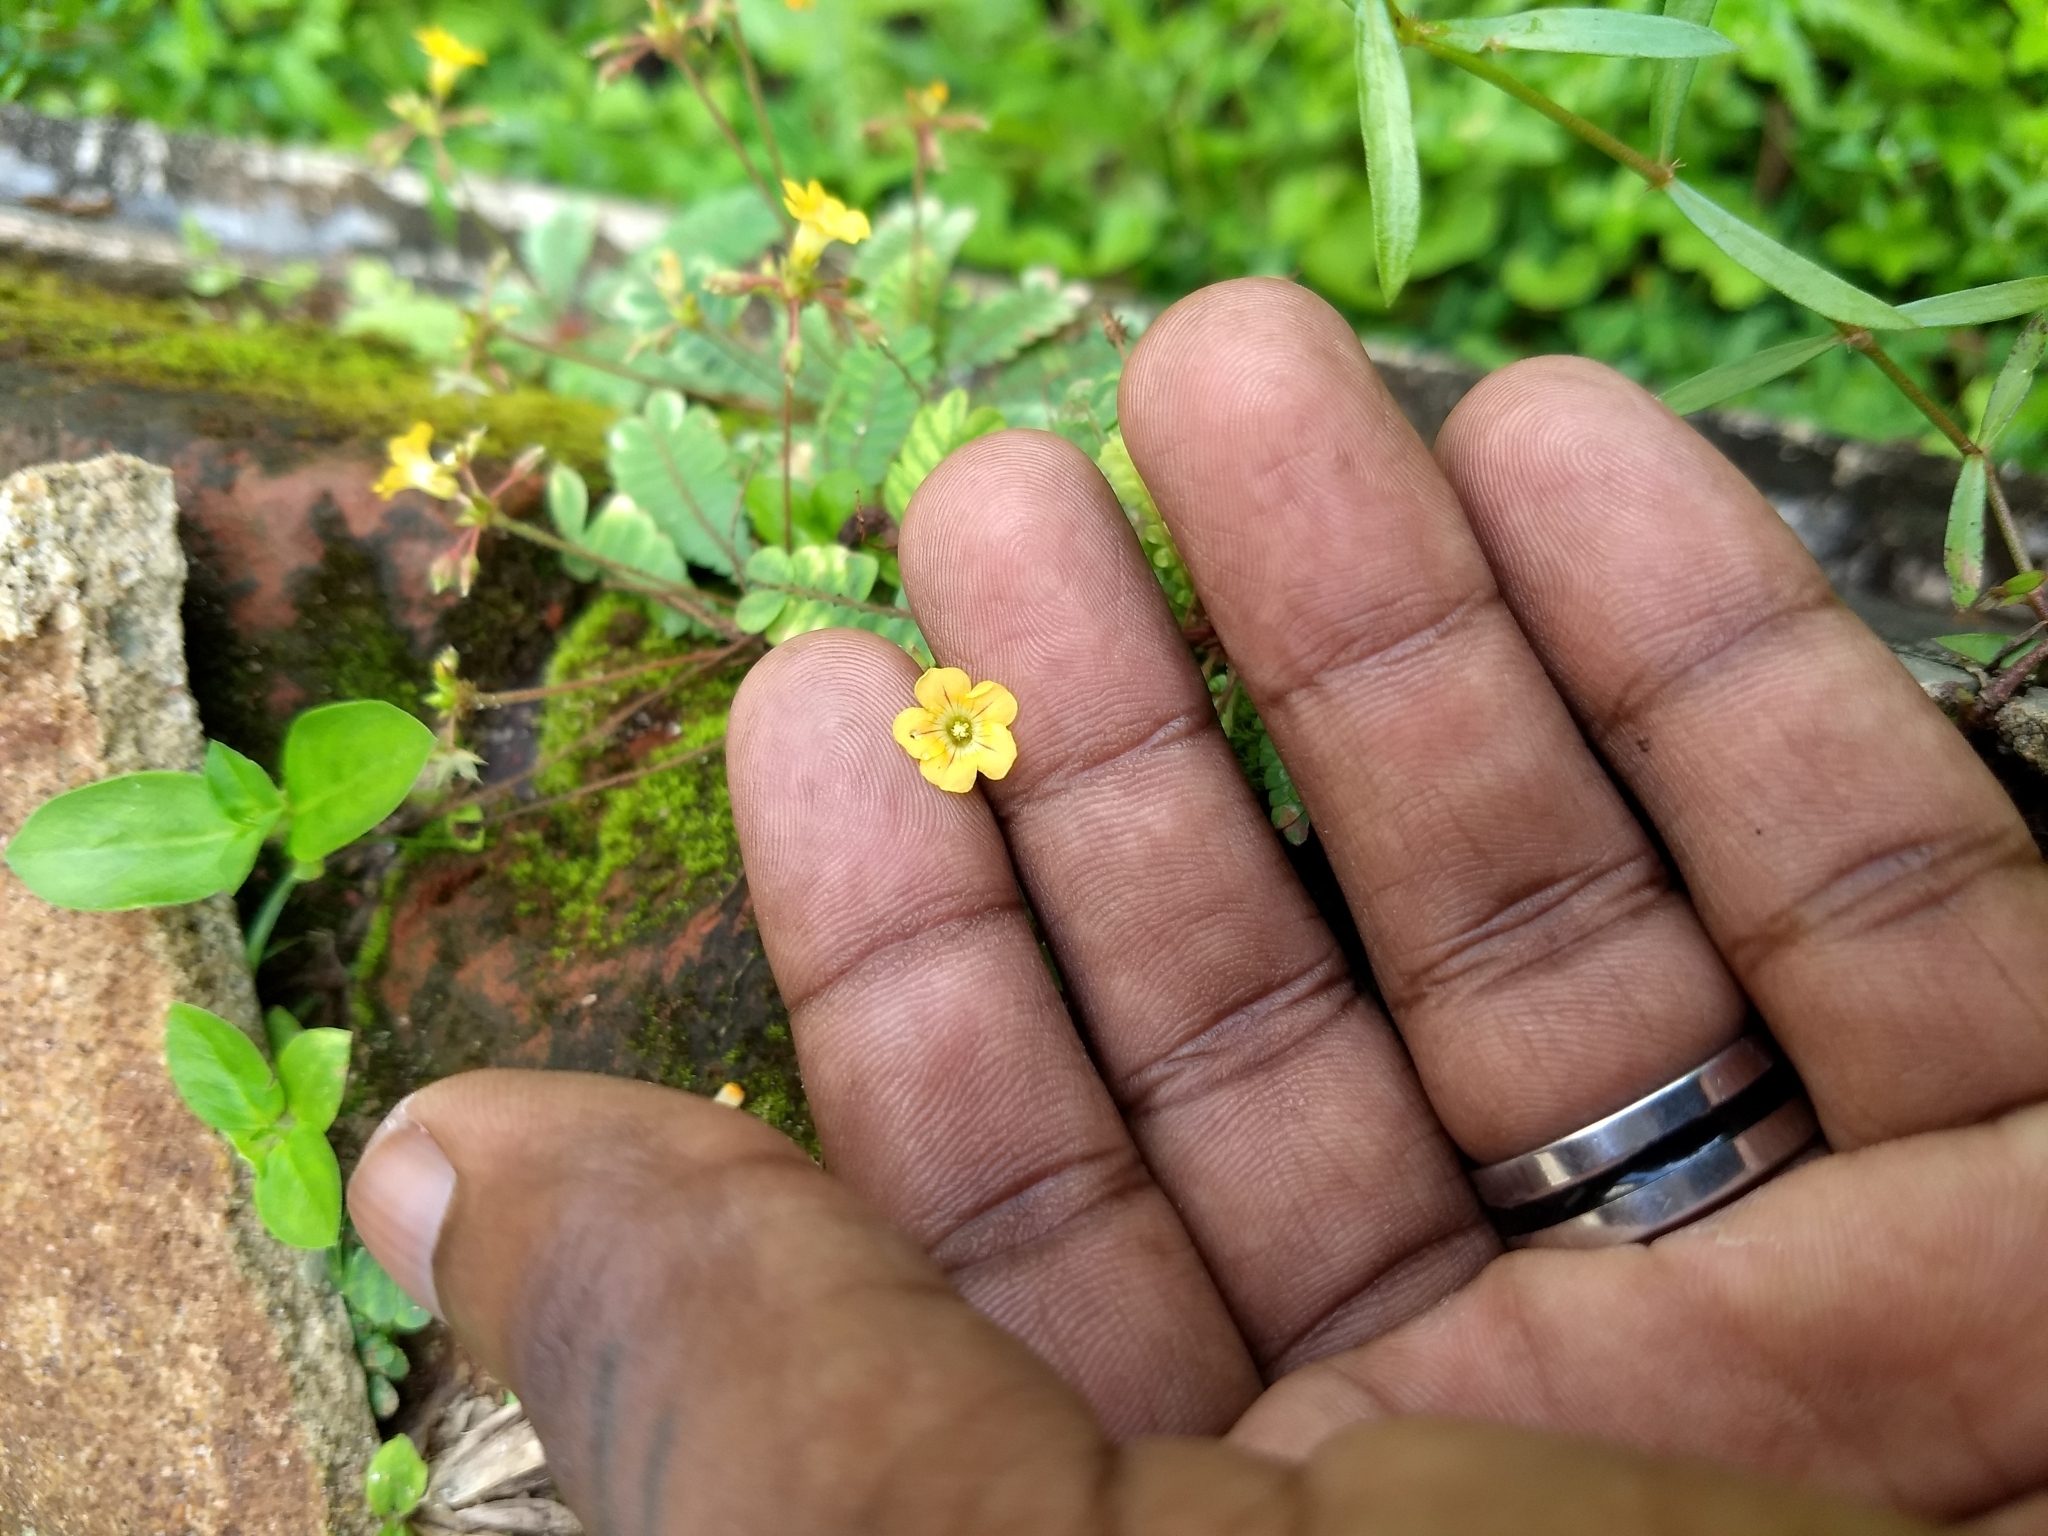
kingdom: Plantae
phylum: Tracheophyta
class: Magnoliopsida
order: Oxalidales
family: Oxalidaceae
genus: Biophytum
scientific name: Biophytum sensitivum
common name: Lifeplant
